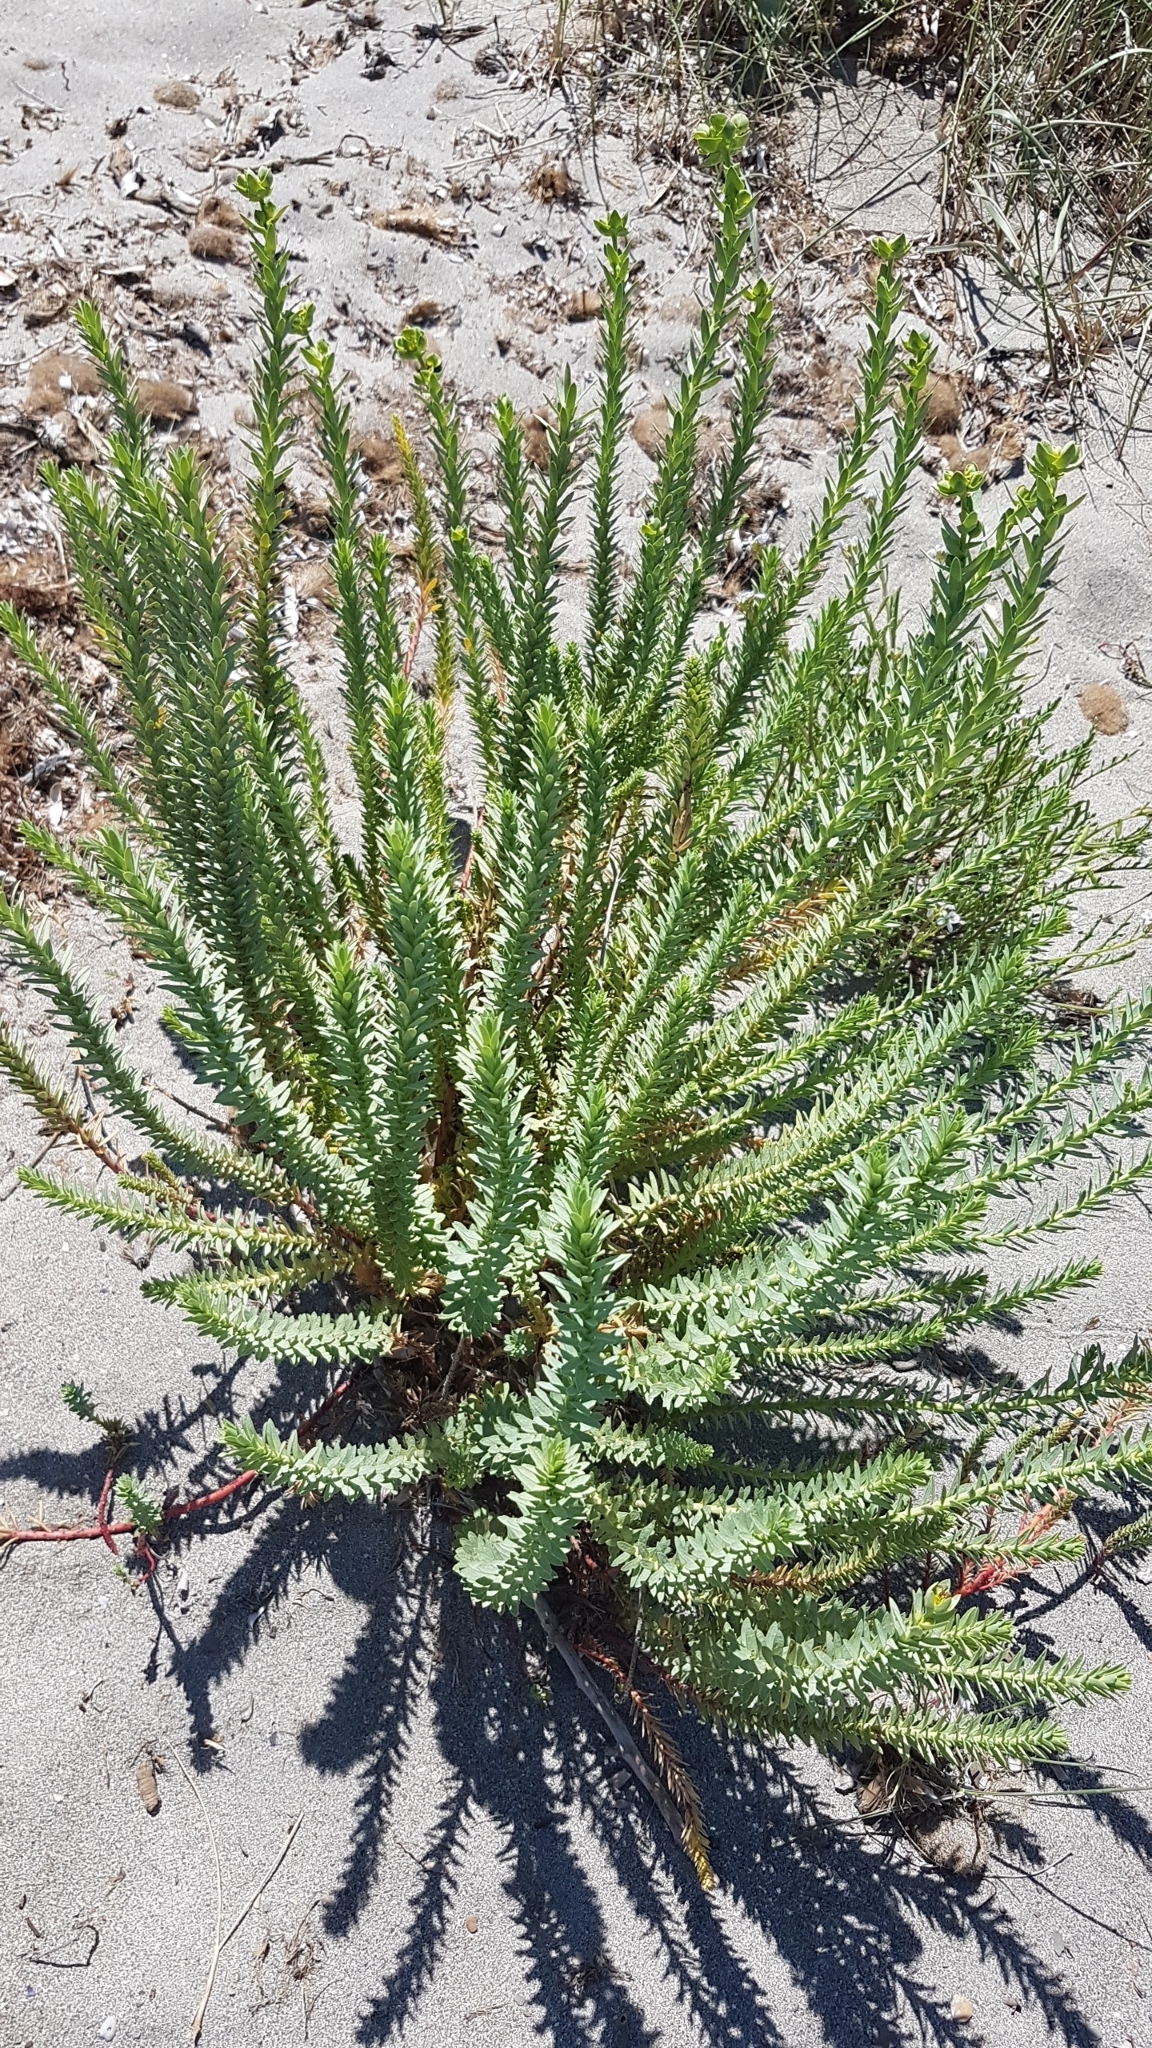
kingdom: Plantae
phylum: Tracheophyta
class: Magnoliopsida
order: Malpighiales
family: Euphorbiaceae
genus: Euphorbia
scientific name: Euphorbia paralias
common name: Sea spurge
